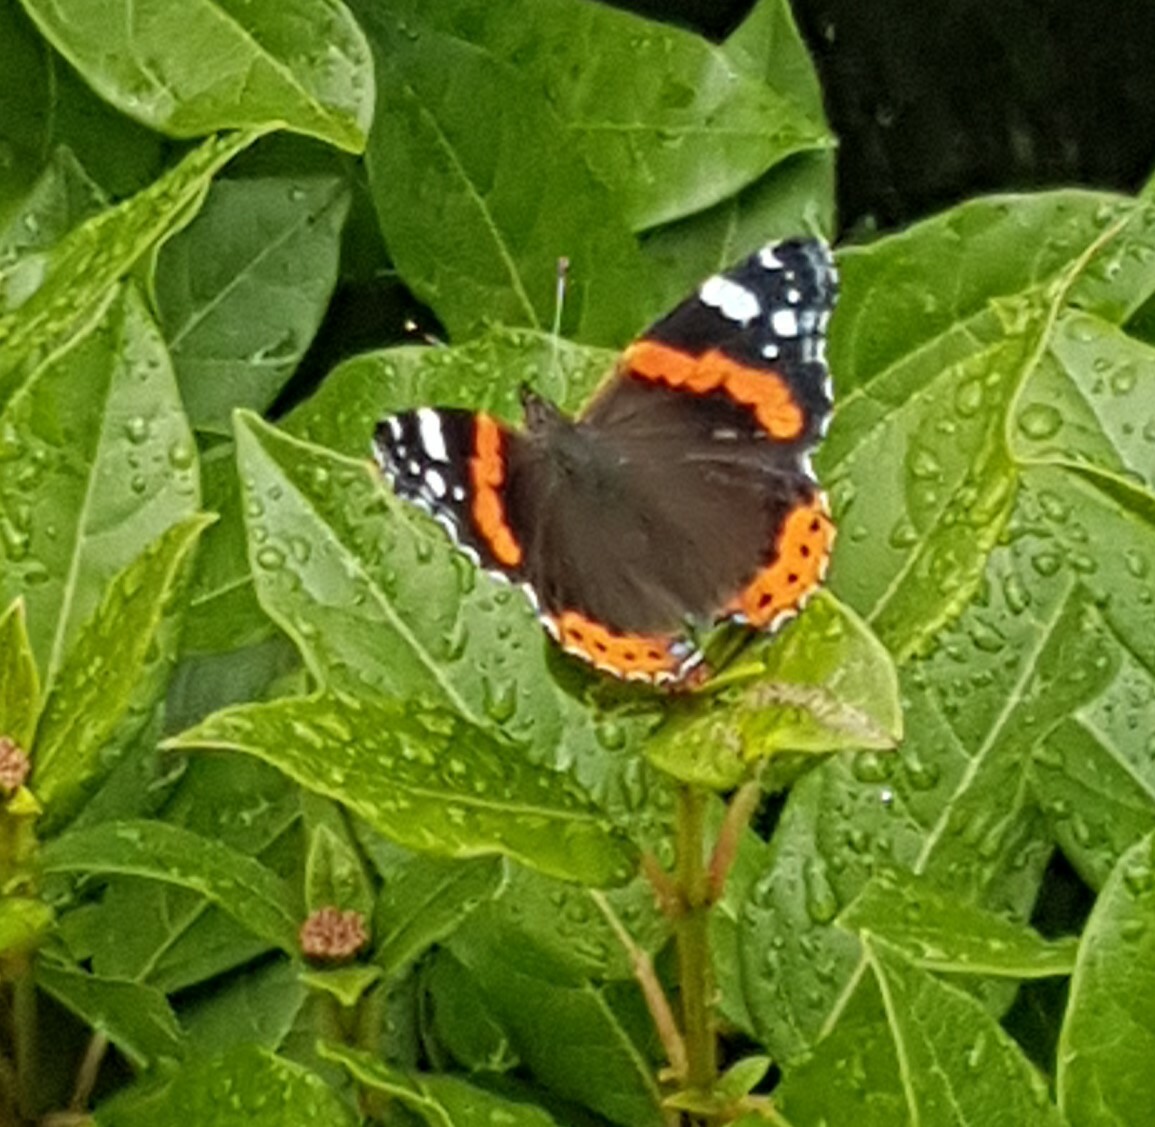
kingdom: Animalia
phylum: Arthropoda
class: Insecta
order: Lepidoptera
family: Nymphalidae
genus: Vanessa
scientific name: Vanessa atalanta
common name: Red admiral
